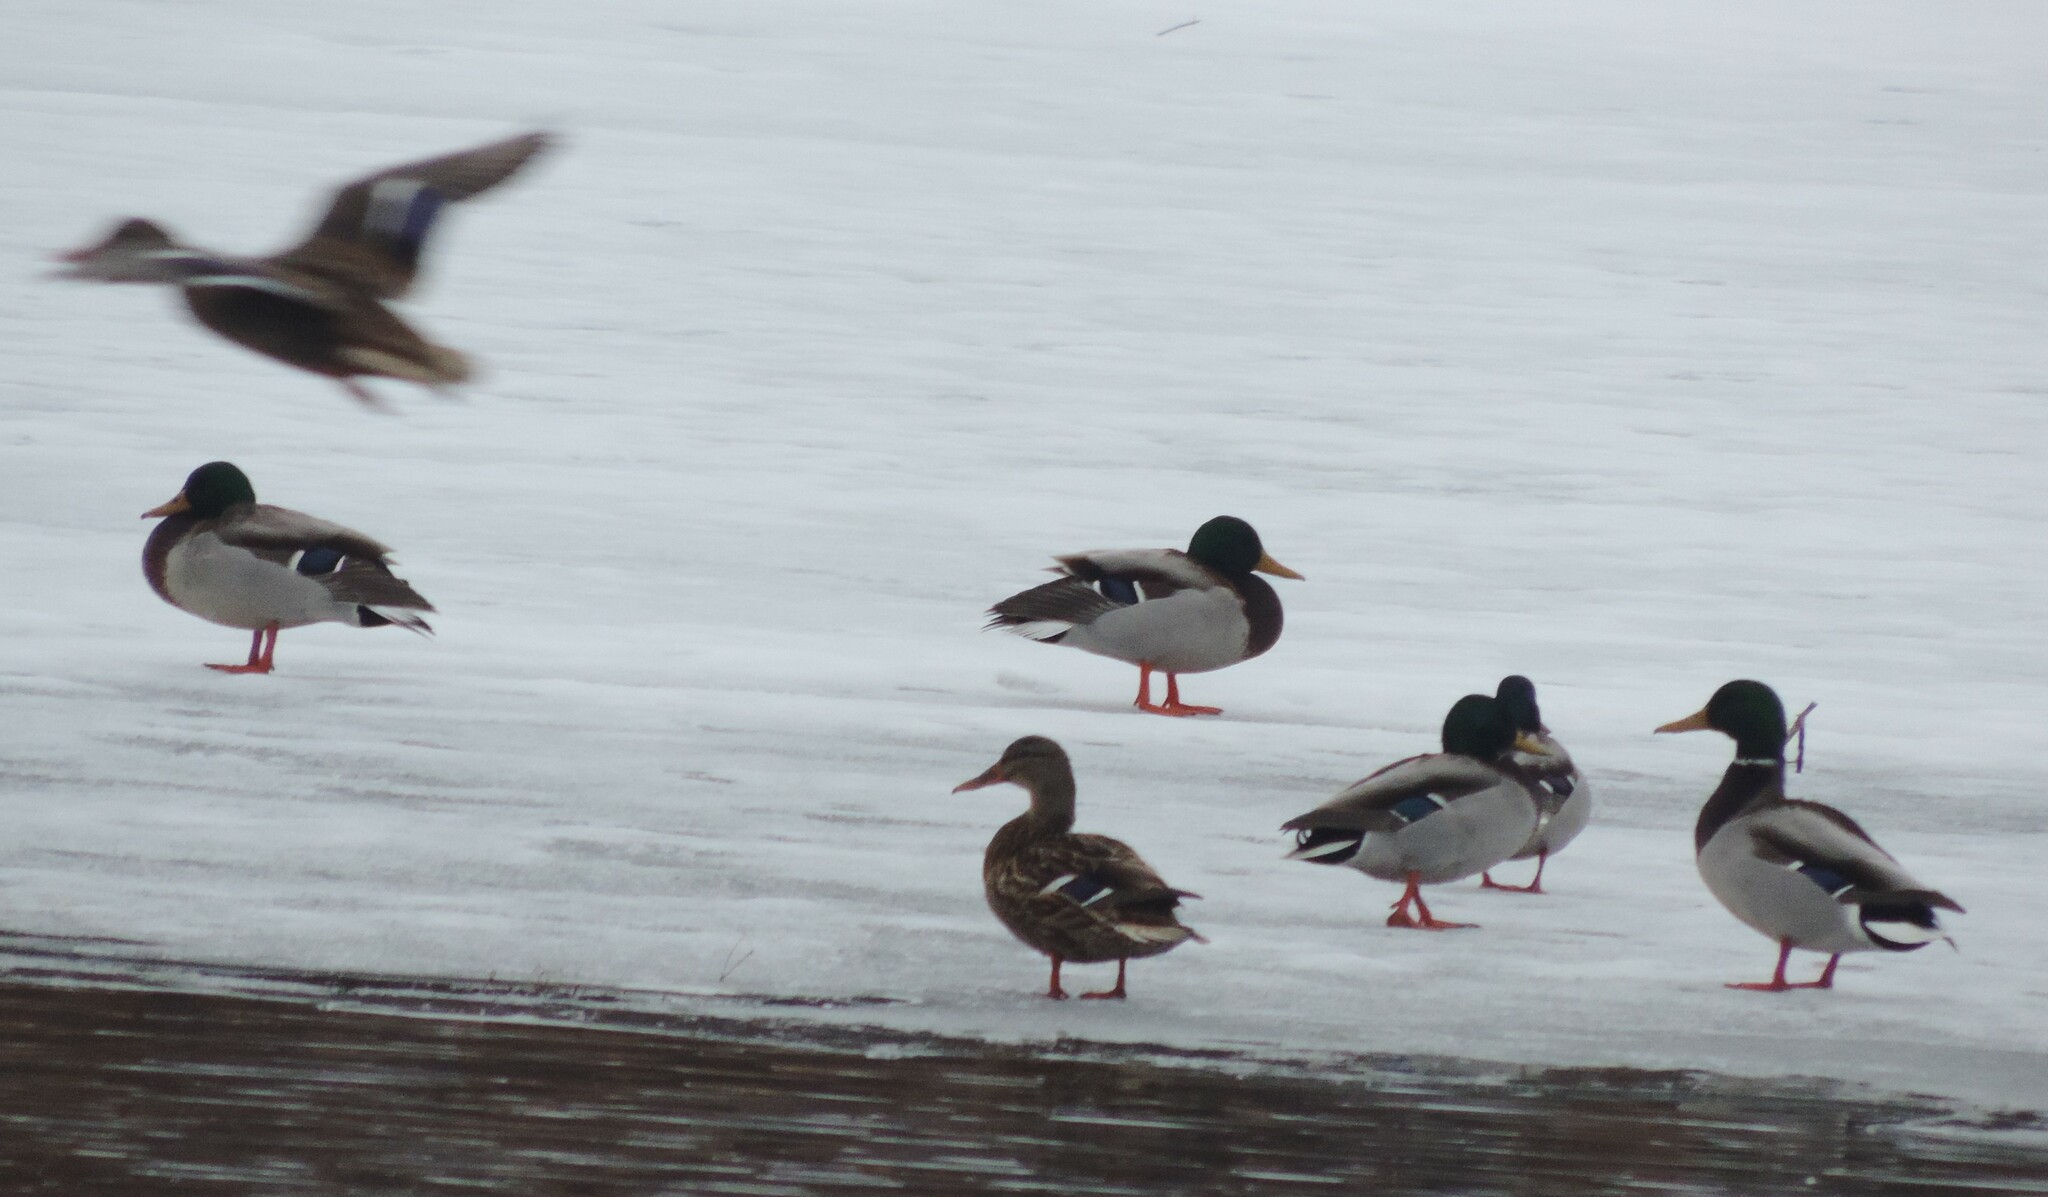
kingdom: Animalia
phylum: Chordata
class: Aves
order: Anseriformes
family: Anatidae
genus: Anas
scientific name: Anas platyrhynchos
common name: Mallard
